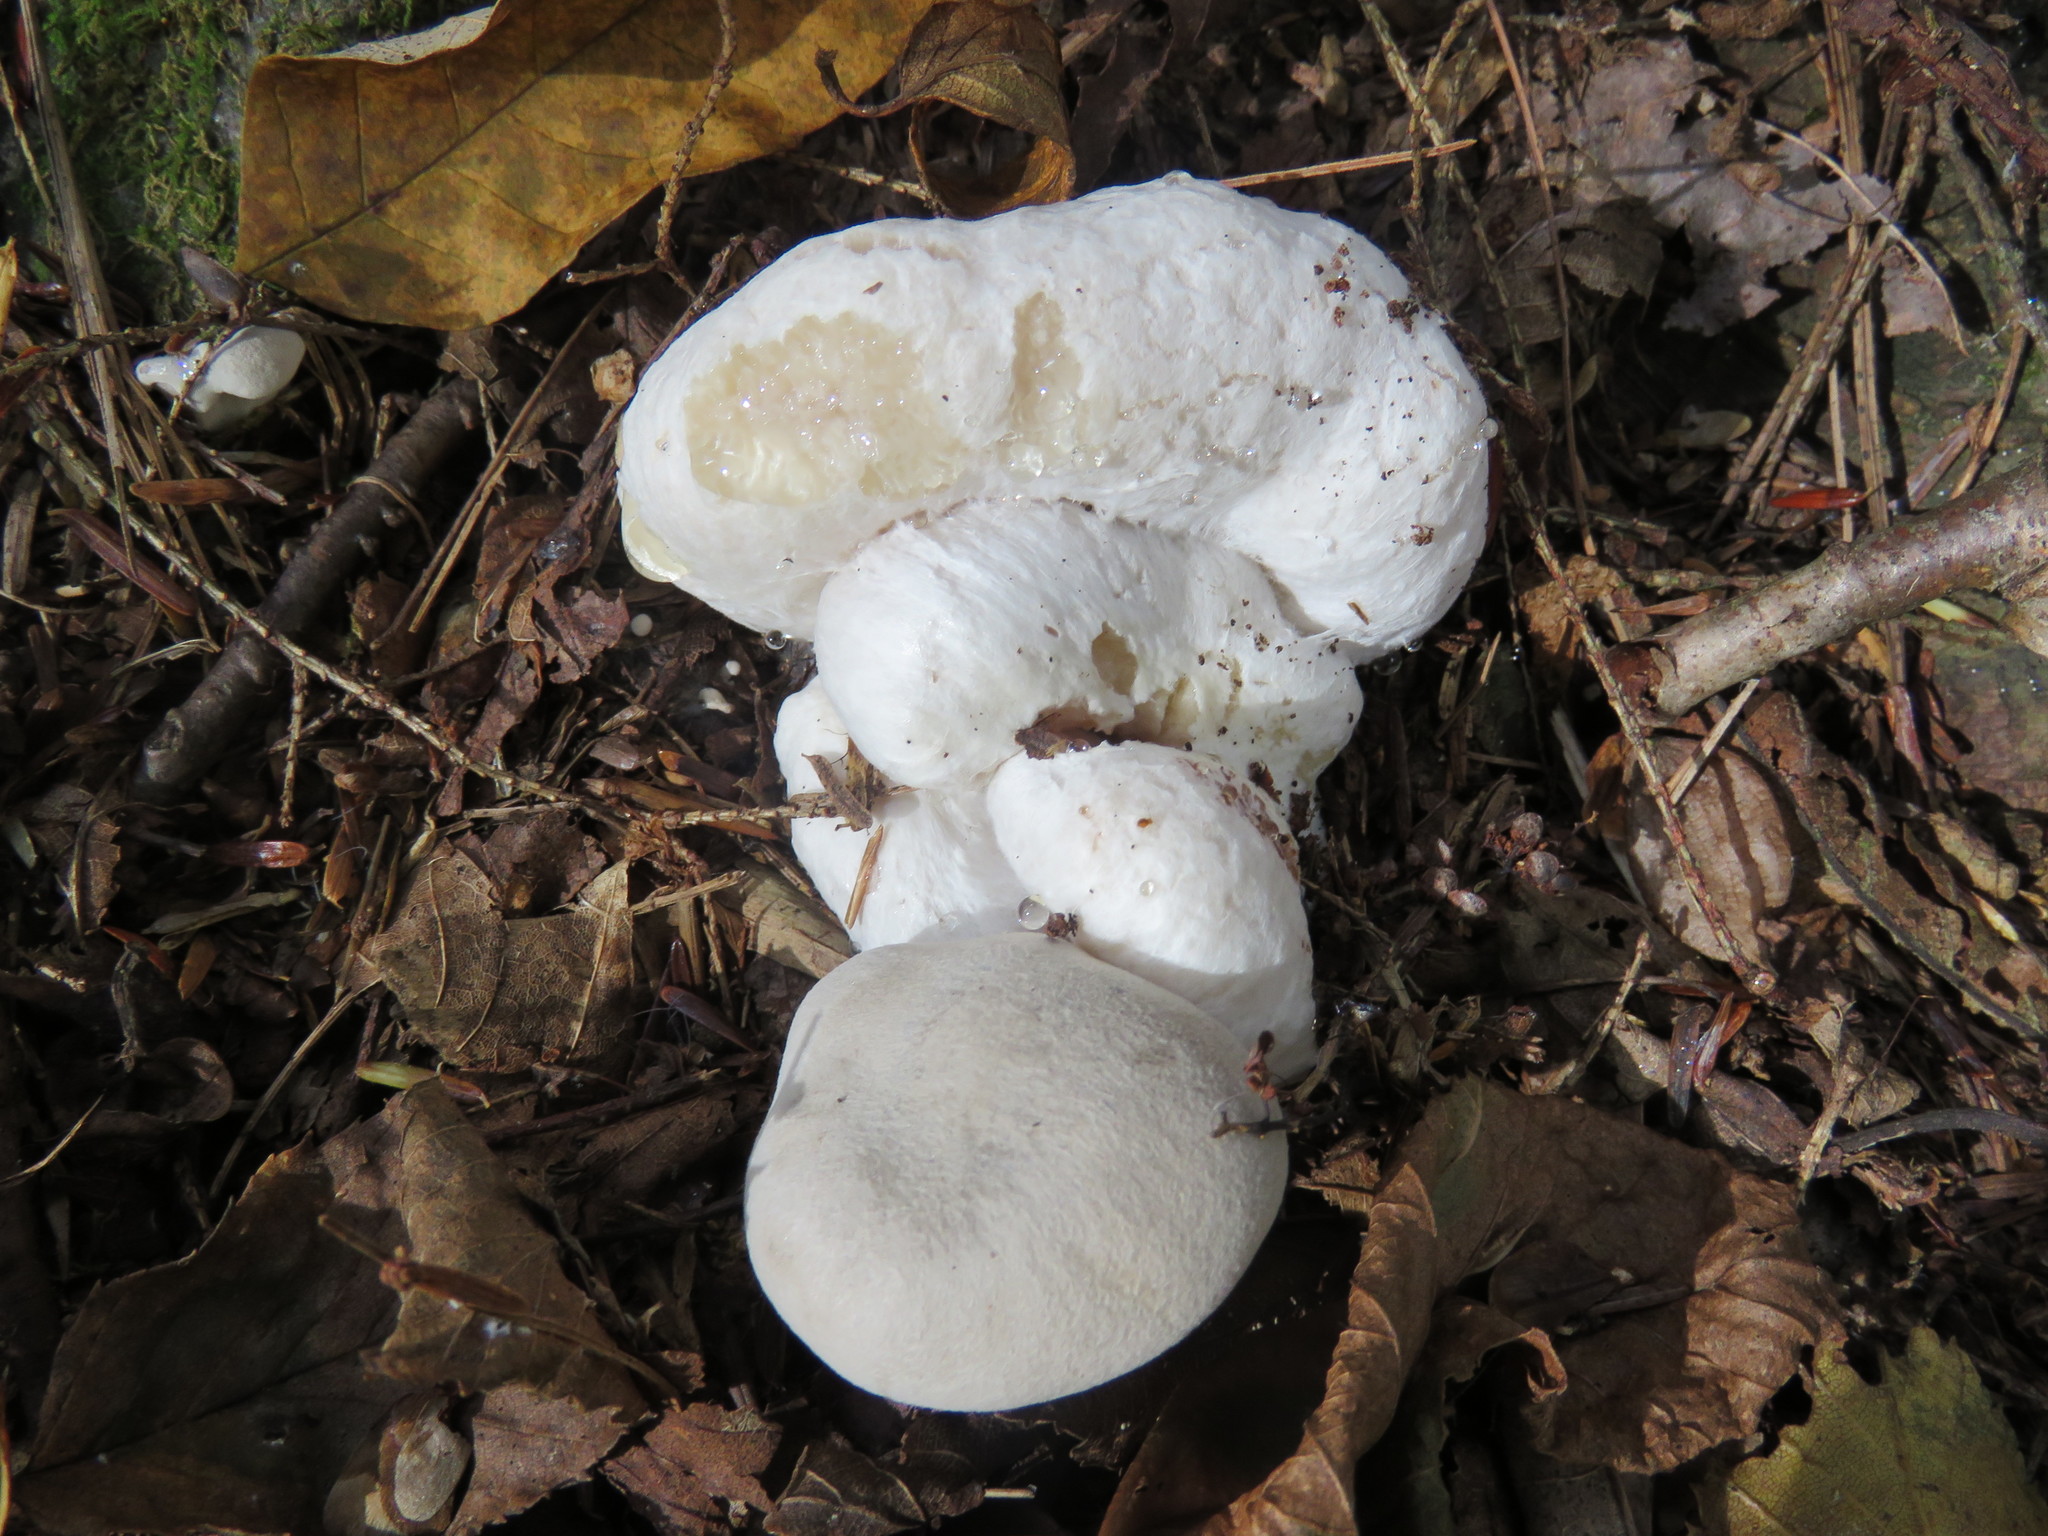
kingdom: Fungi
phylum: Basidiomycota
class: Agaricomycetes
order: Agaricales
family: Entolomataceae
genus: Entoloma
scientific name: Entoloma abortivum
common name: Aborted entoloma
